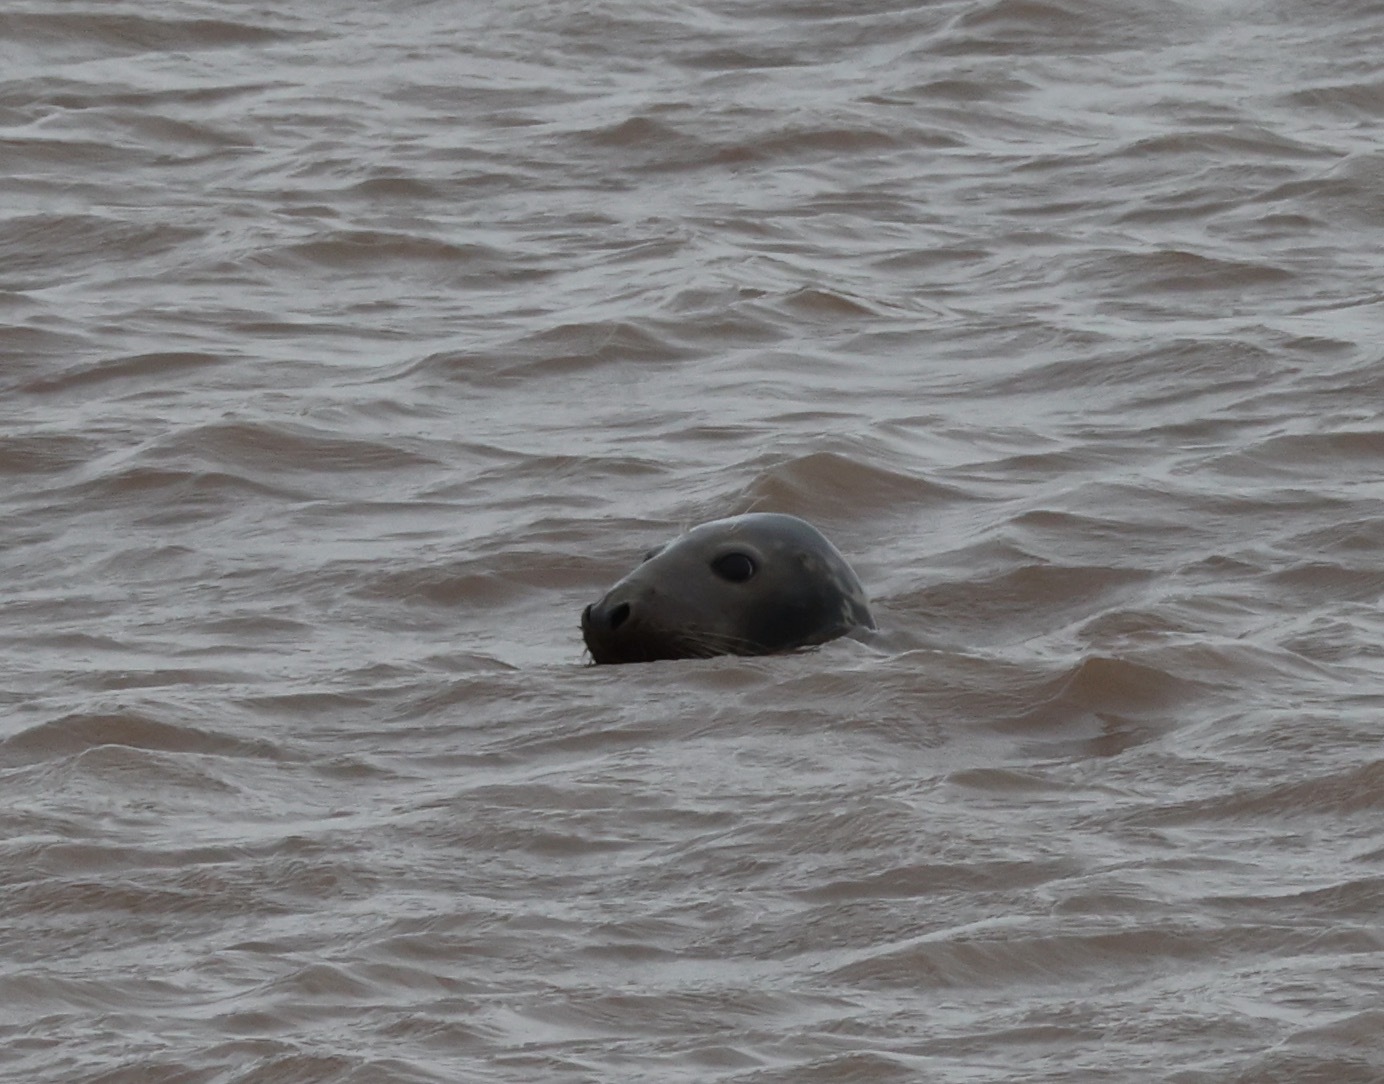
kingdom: Animalia
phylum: Chordata
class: Mammalia
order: Carnivora
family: Phocidae
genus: Halichoerus
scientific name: Halichoerus grypus
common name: Grey seal
